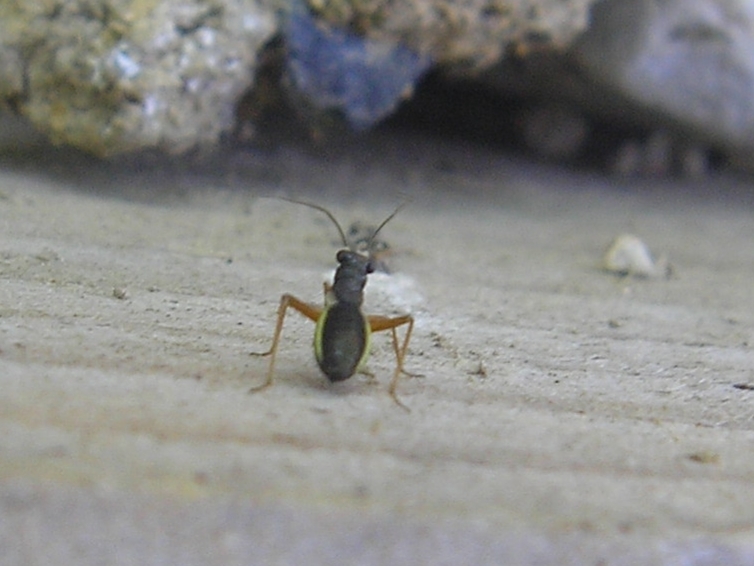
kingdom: Animalia
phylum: Arthropoda
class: Insecta
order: Hemiptera
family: Miridae
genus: Pithanus
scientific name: Pithanus maerkelii
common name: Plant bug
